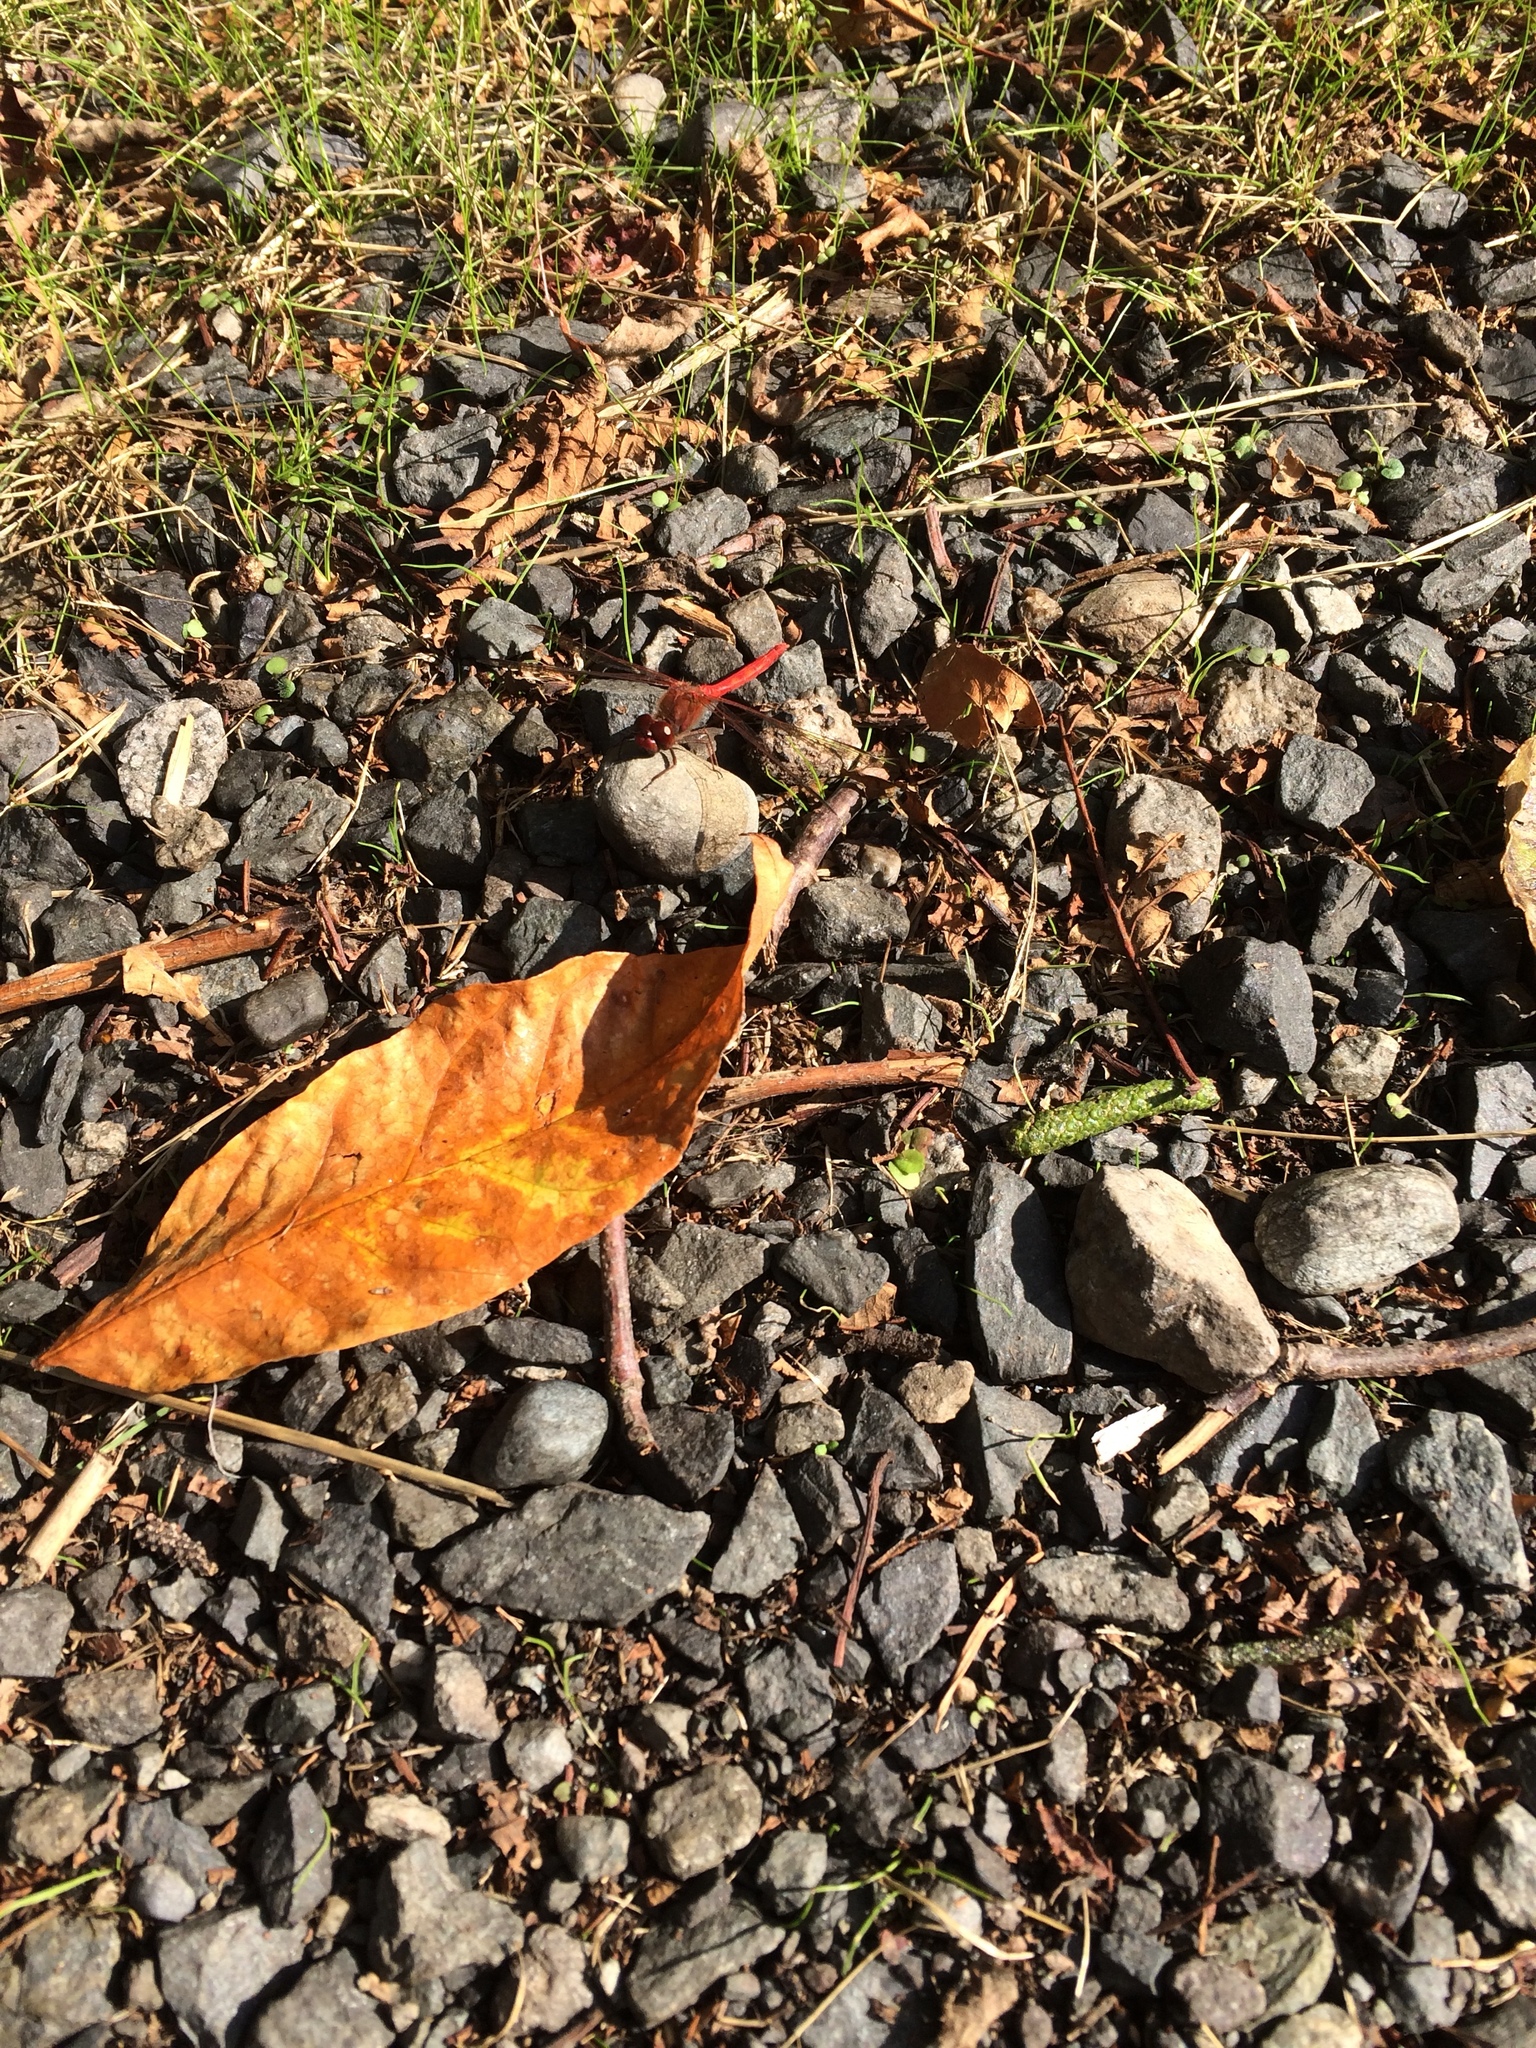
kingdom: Animalia
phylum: Arthropoda
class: Insecta
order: Odonata
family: Libellulidae
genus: Sympetrum
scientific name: Sympetrum vicinum
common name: Autumn meadowhawk
